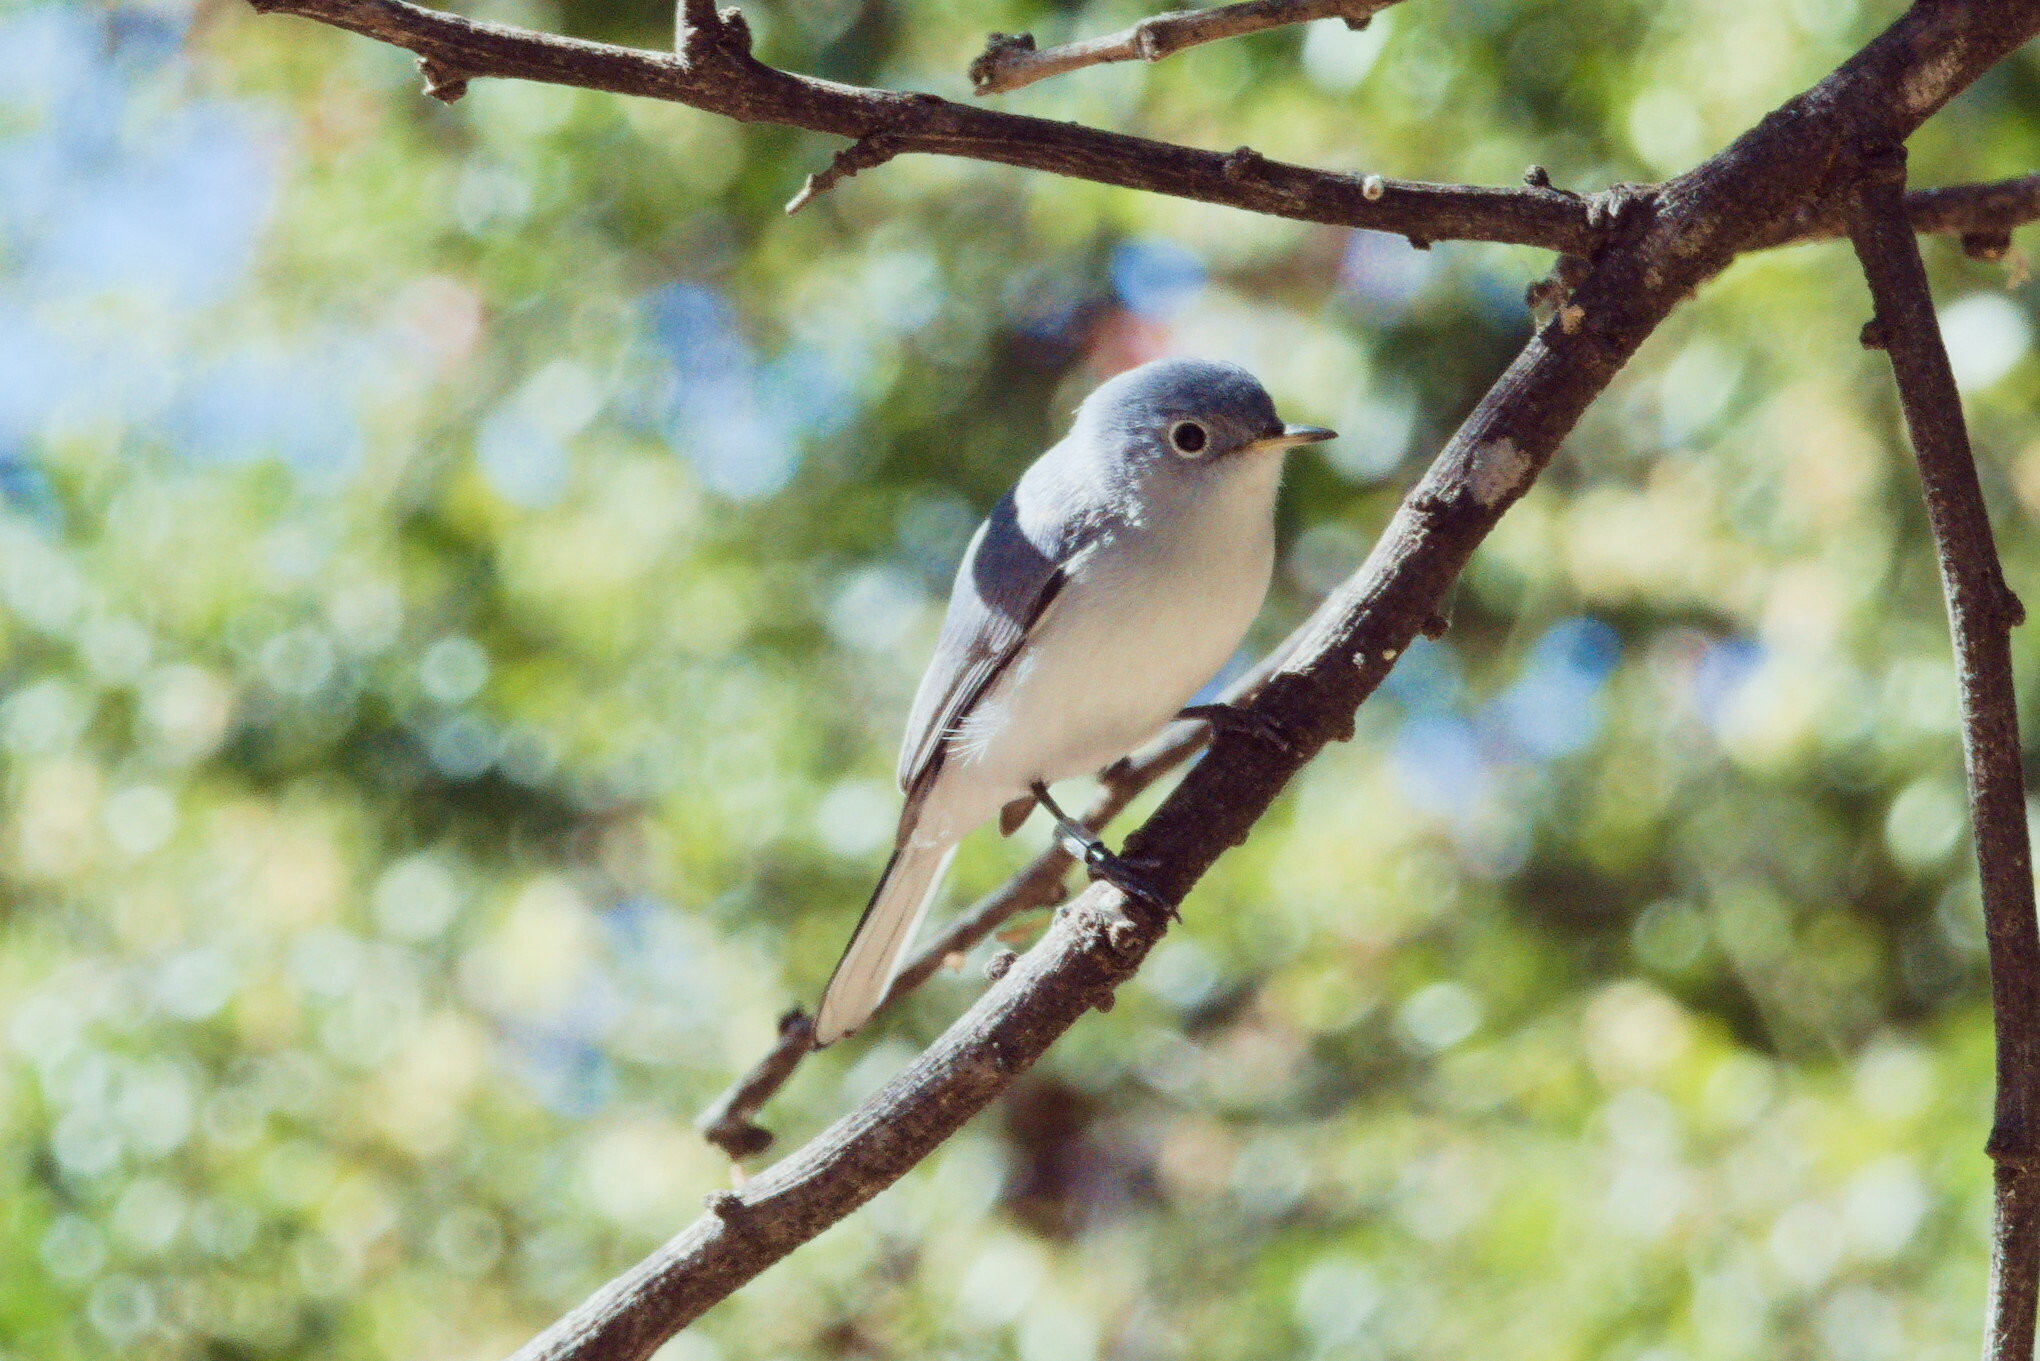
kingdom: Animalia
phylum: Chordata
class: Aves
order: Passeriformes
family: Polioptilidae
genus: Polioptila
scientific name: Polioptila caerulea
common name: Blue-gray gnatcatcher
